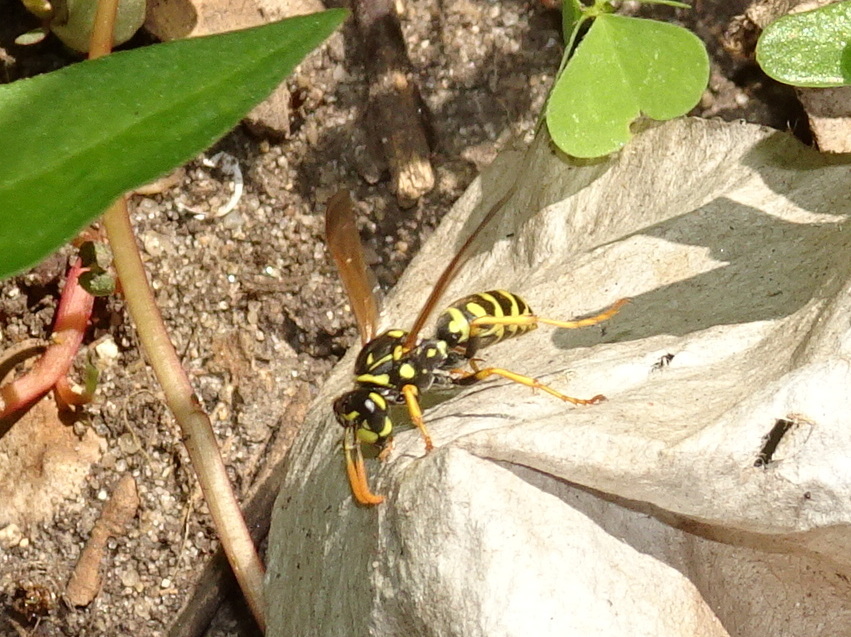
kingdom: Animalia
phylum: Arthropoda
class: Insecta
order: Hymenoptera
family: Eumenidae
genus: Polistes
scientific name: Polistes dominula
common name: Paper wasp
